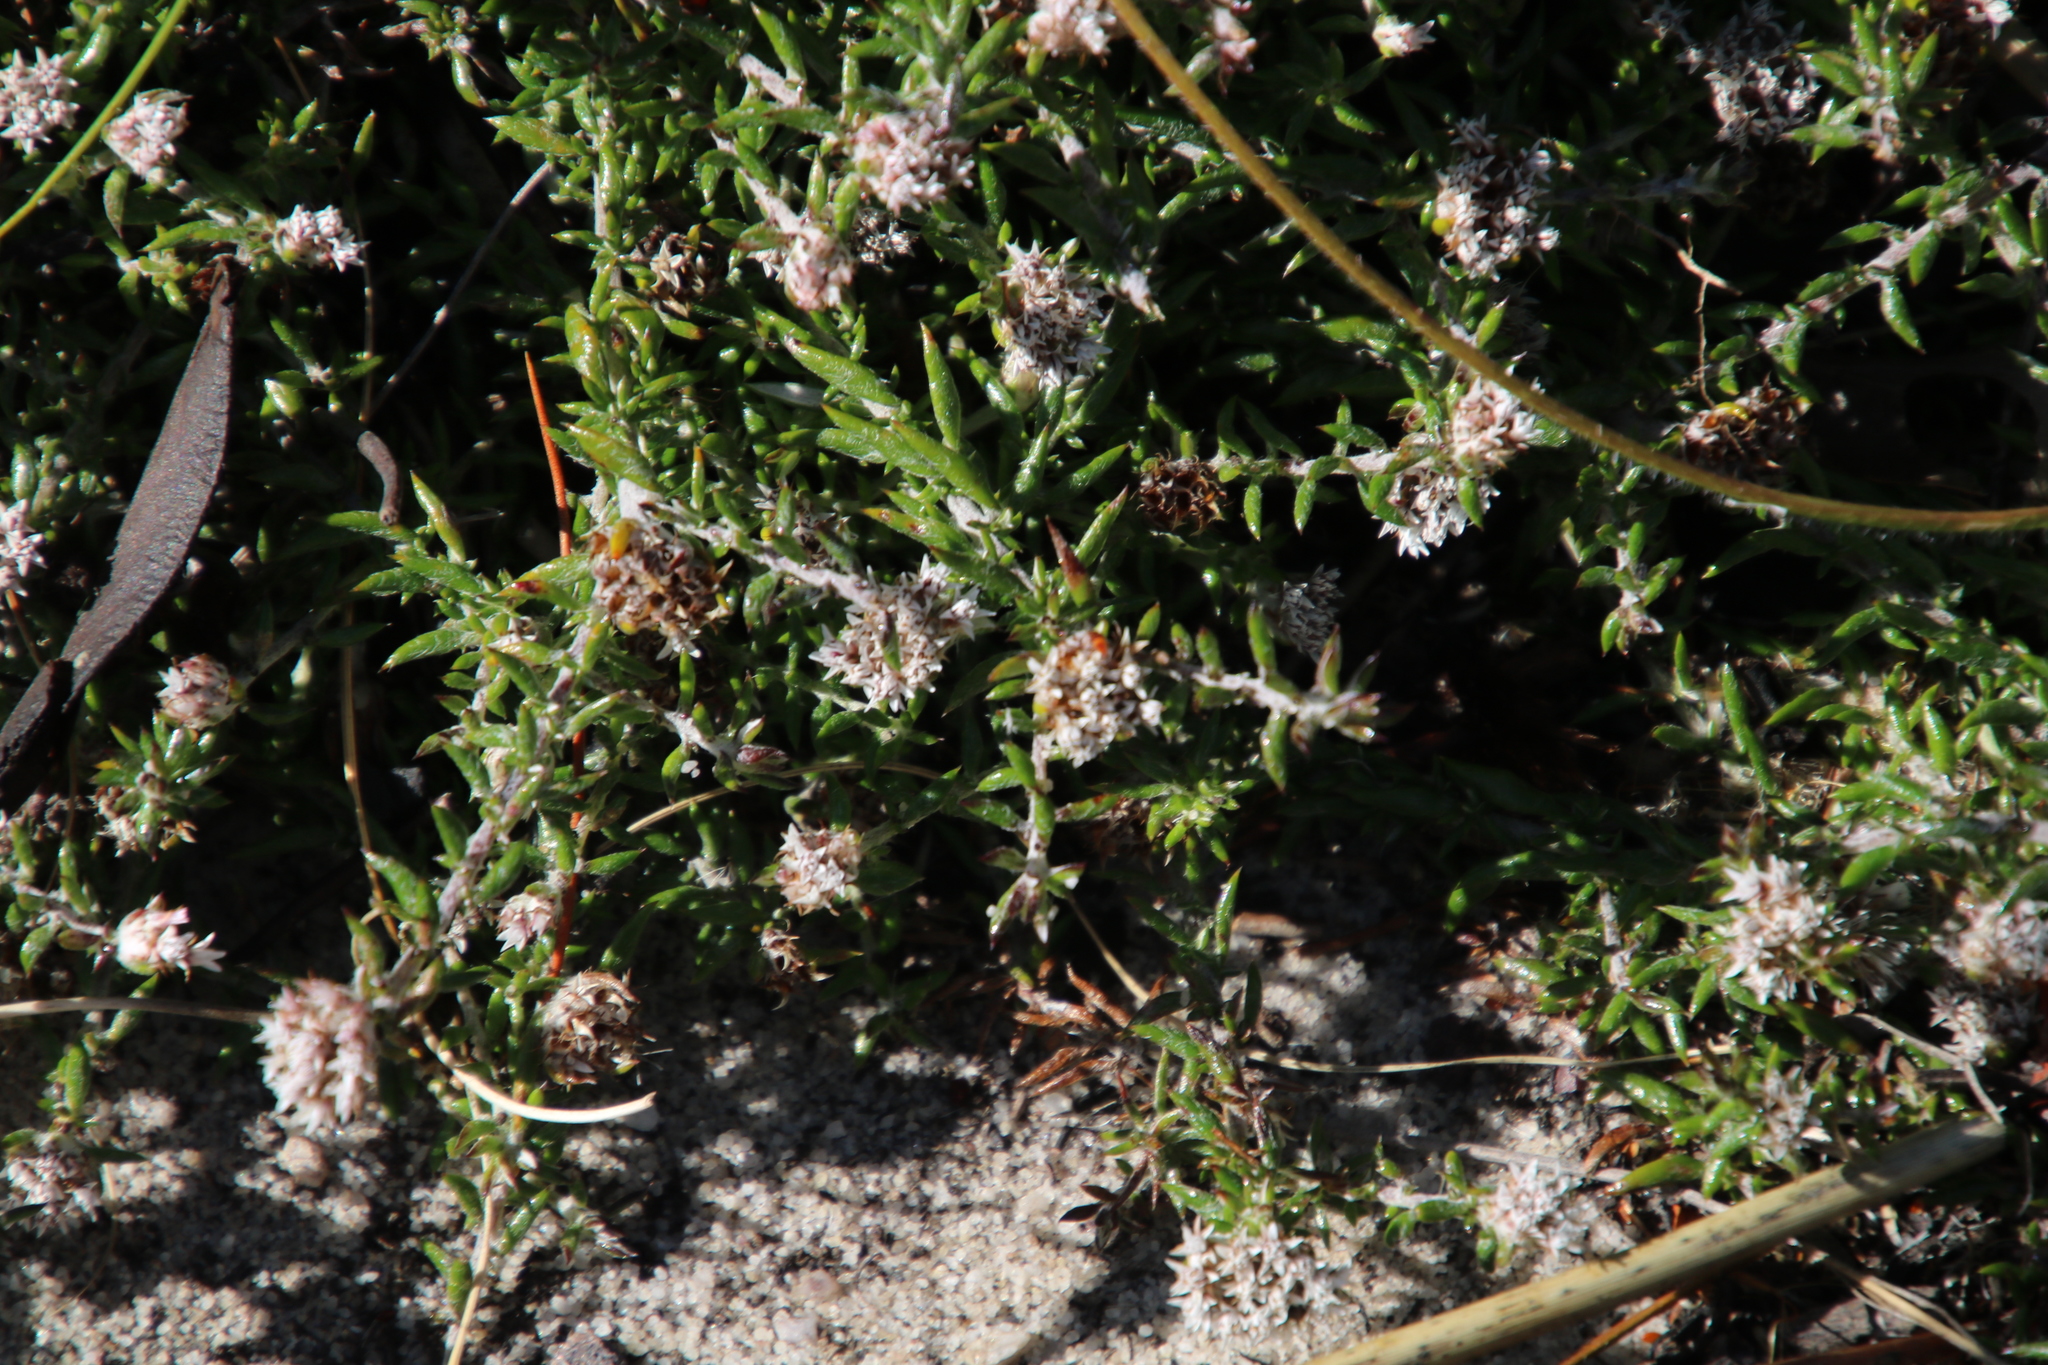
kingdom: Plantae
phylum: Tracheophyta
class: Magnoliopsida
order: Asterales
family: Asteraceae
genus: Metalasia
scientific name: Metalasia divergens
